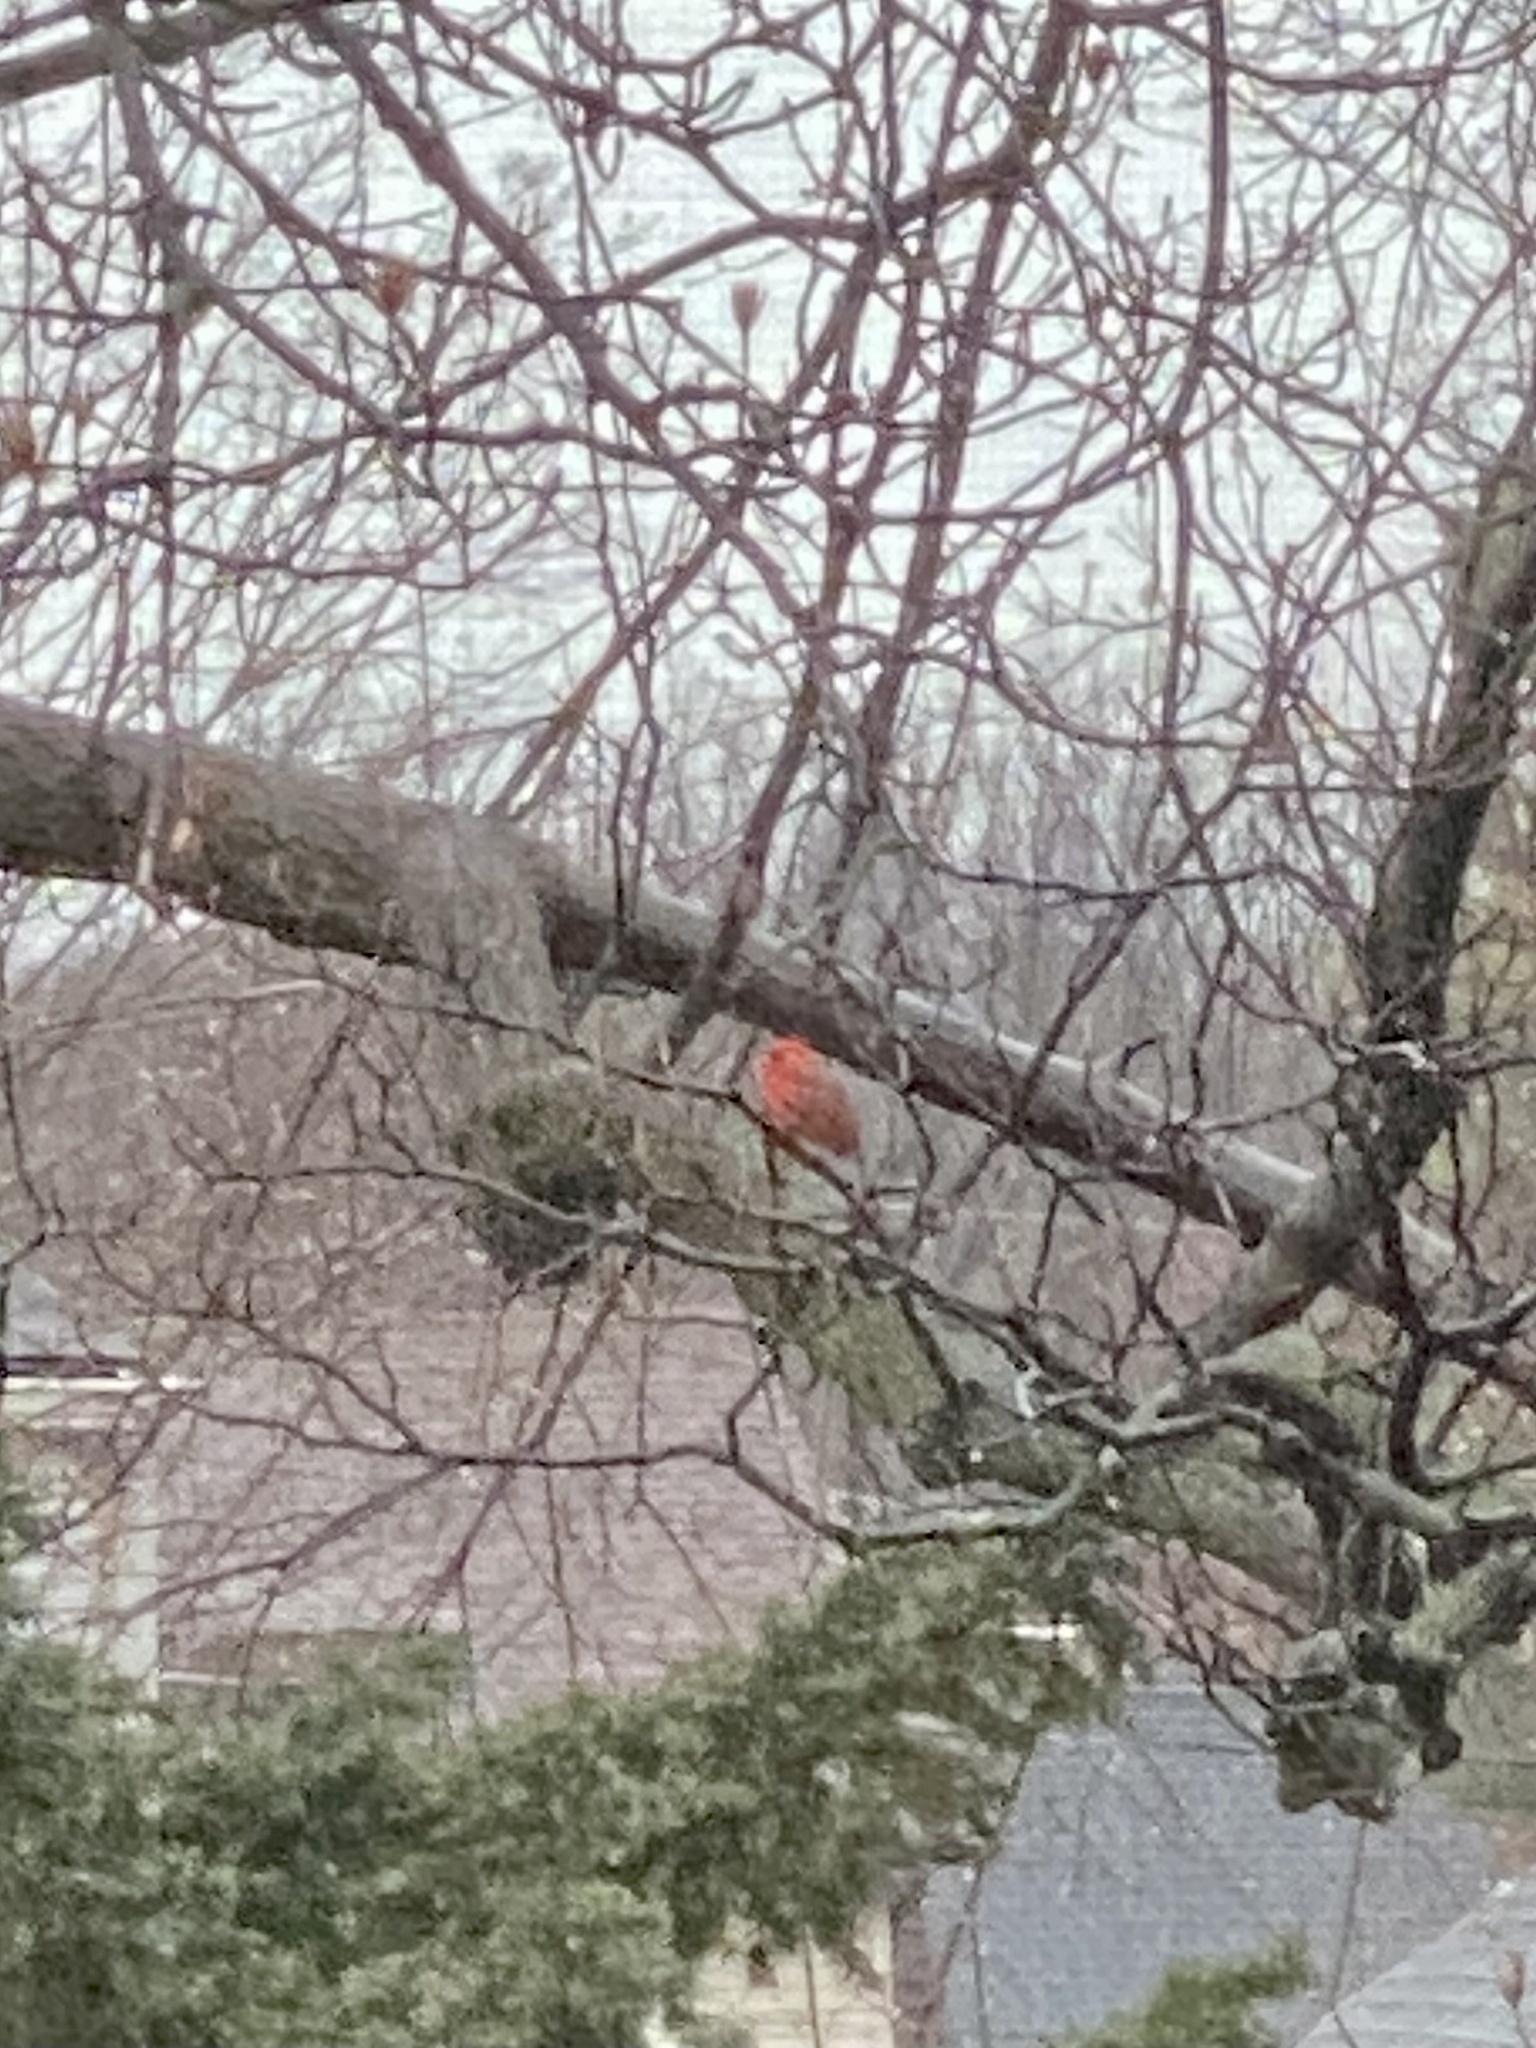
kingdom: Animalia
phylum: Chordata
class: Aves
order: Passeriformes
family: Cardinalidae
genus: Cardinalis
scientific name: Cardinalis cardinalis
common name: Northern cardinal
